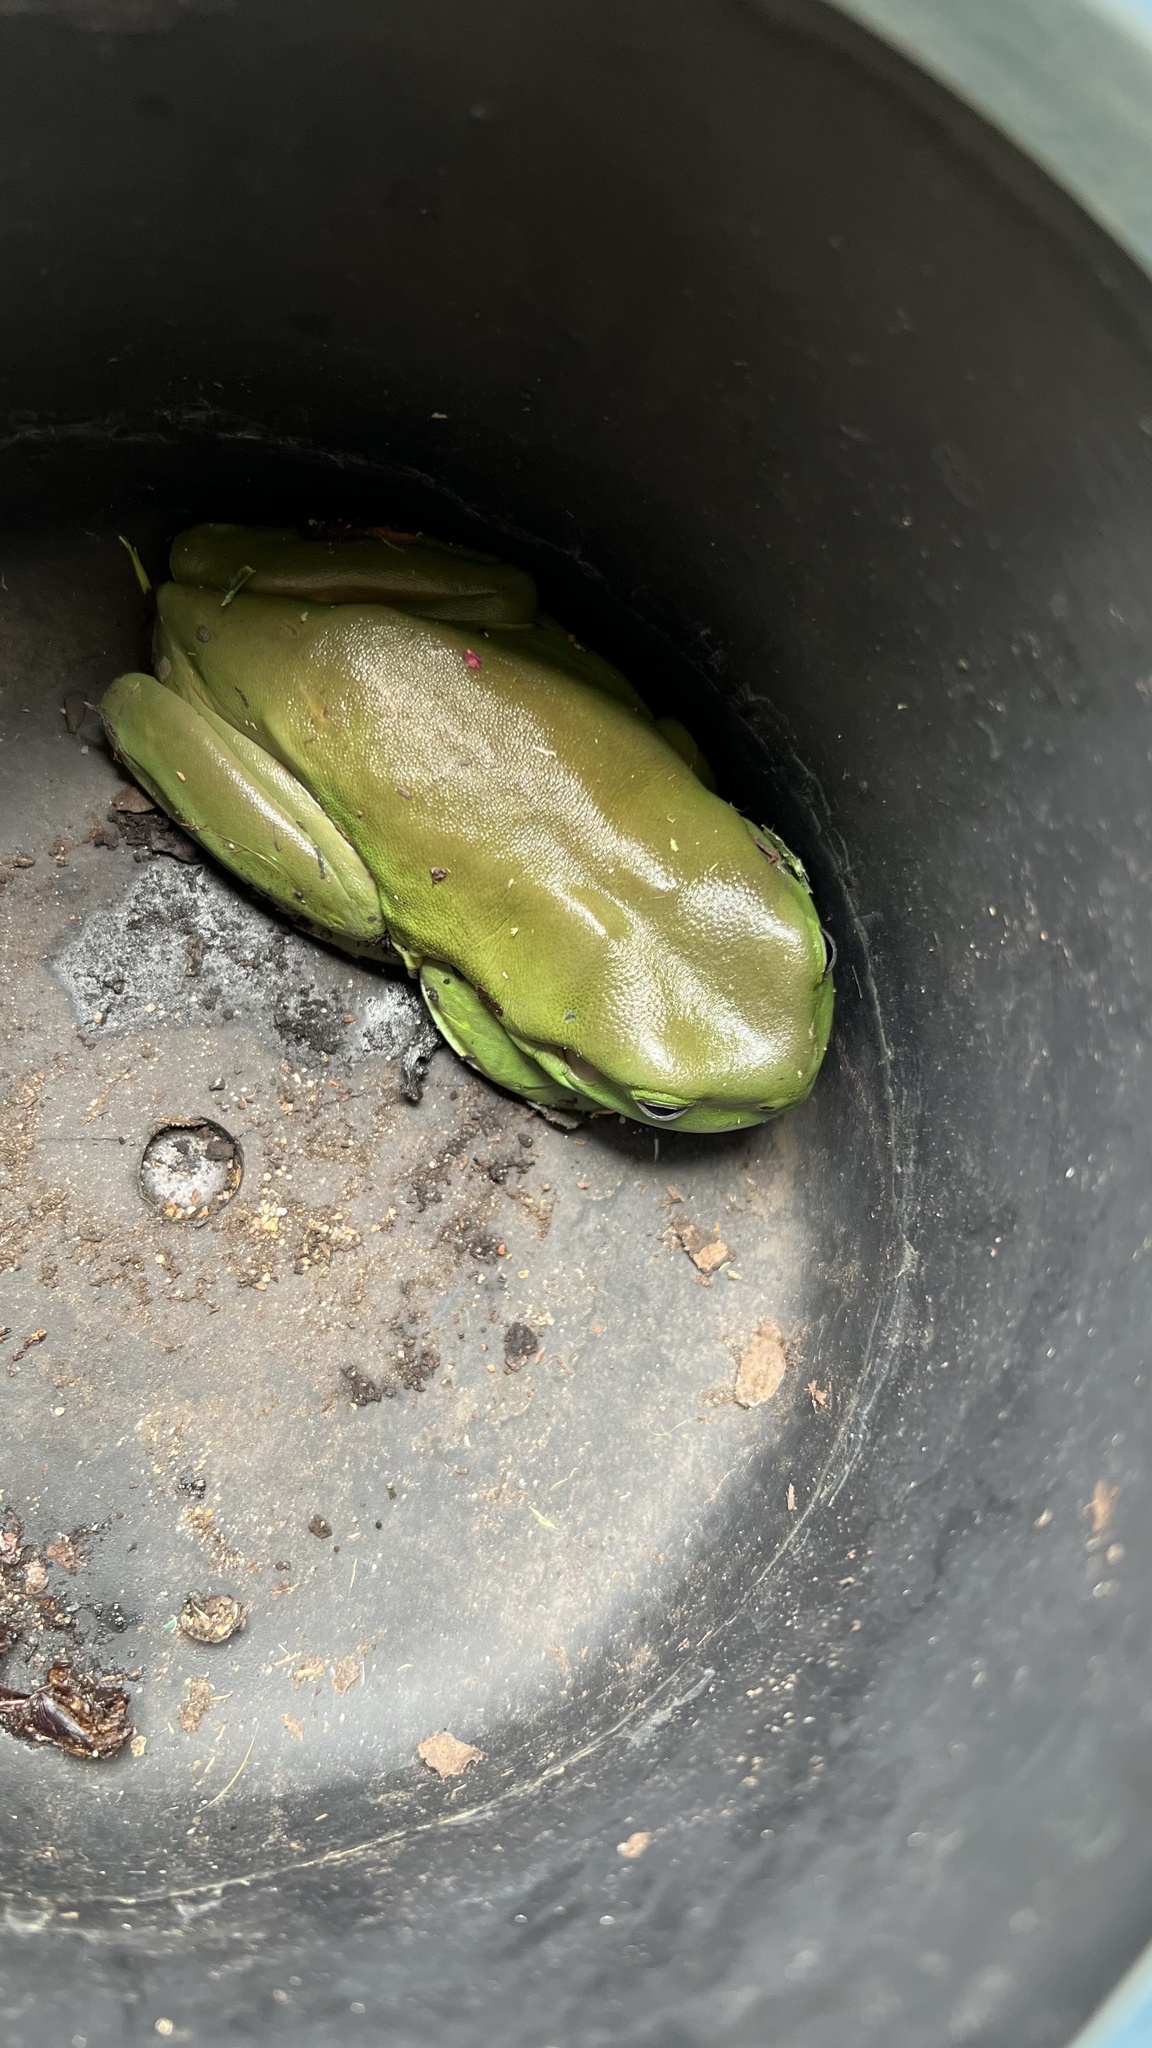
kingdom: Animalia
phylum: Chordata
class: Amphibia
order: Anura
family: Pelodryadidae
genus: Ranoidea
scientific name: Ranoidea caerulea
